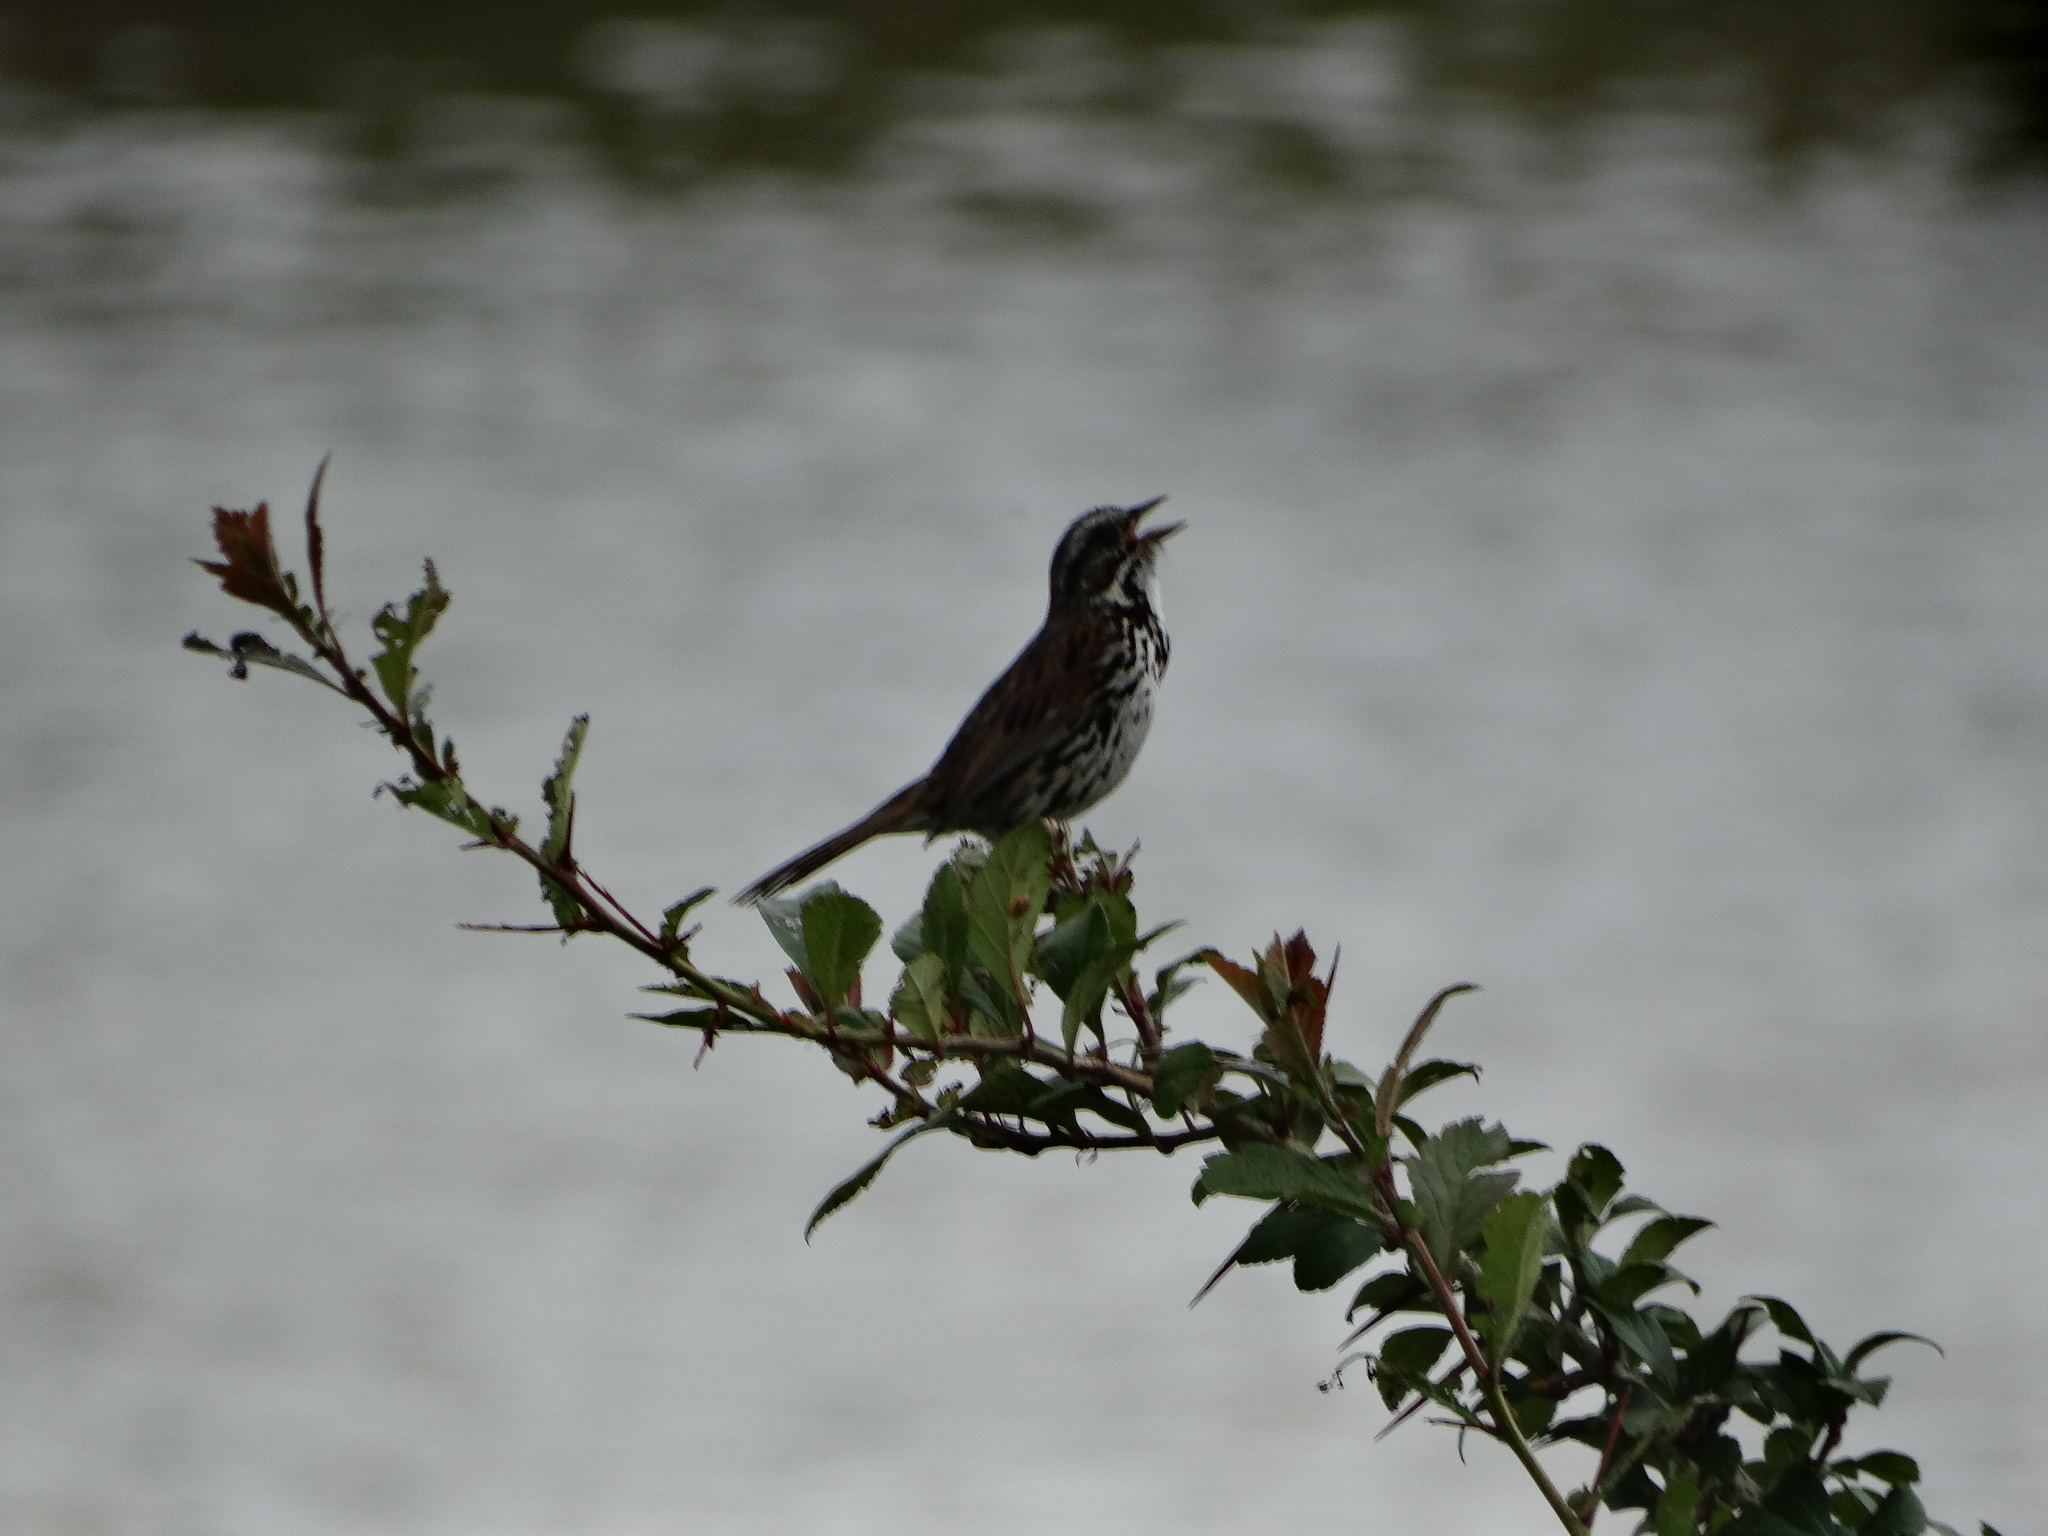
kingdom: Animalia
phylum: Chordata
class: Aves
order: Passeriformes
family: Passerellidae
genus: Melospiza
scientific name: Melospiza melodia
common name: Song sparrow
